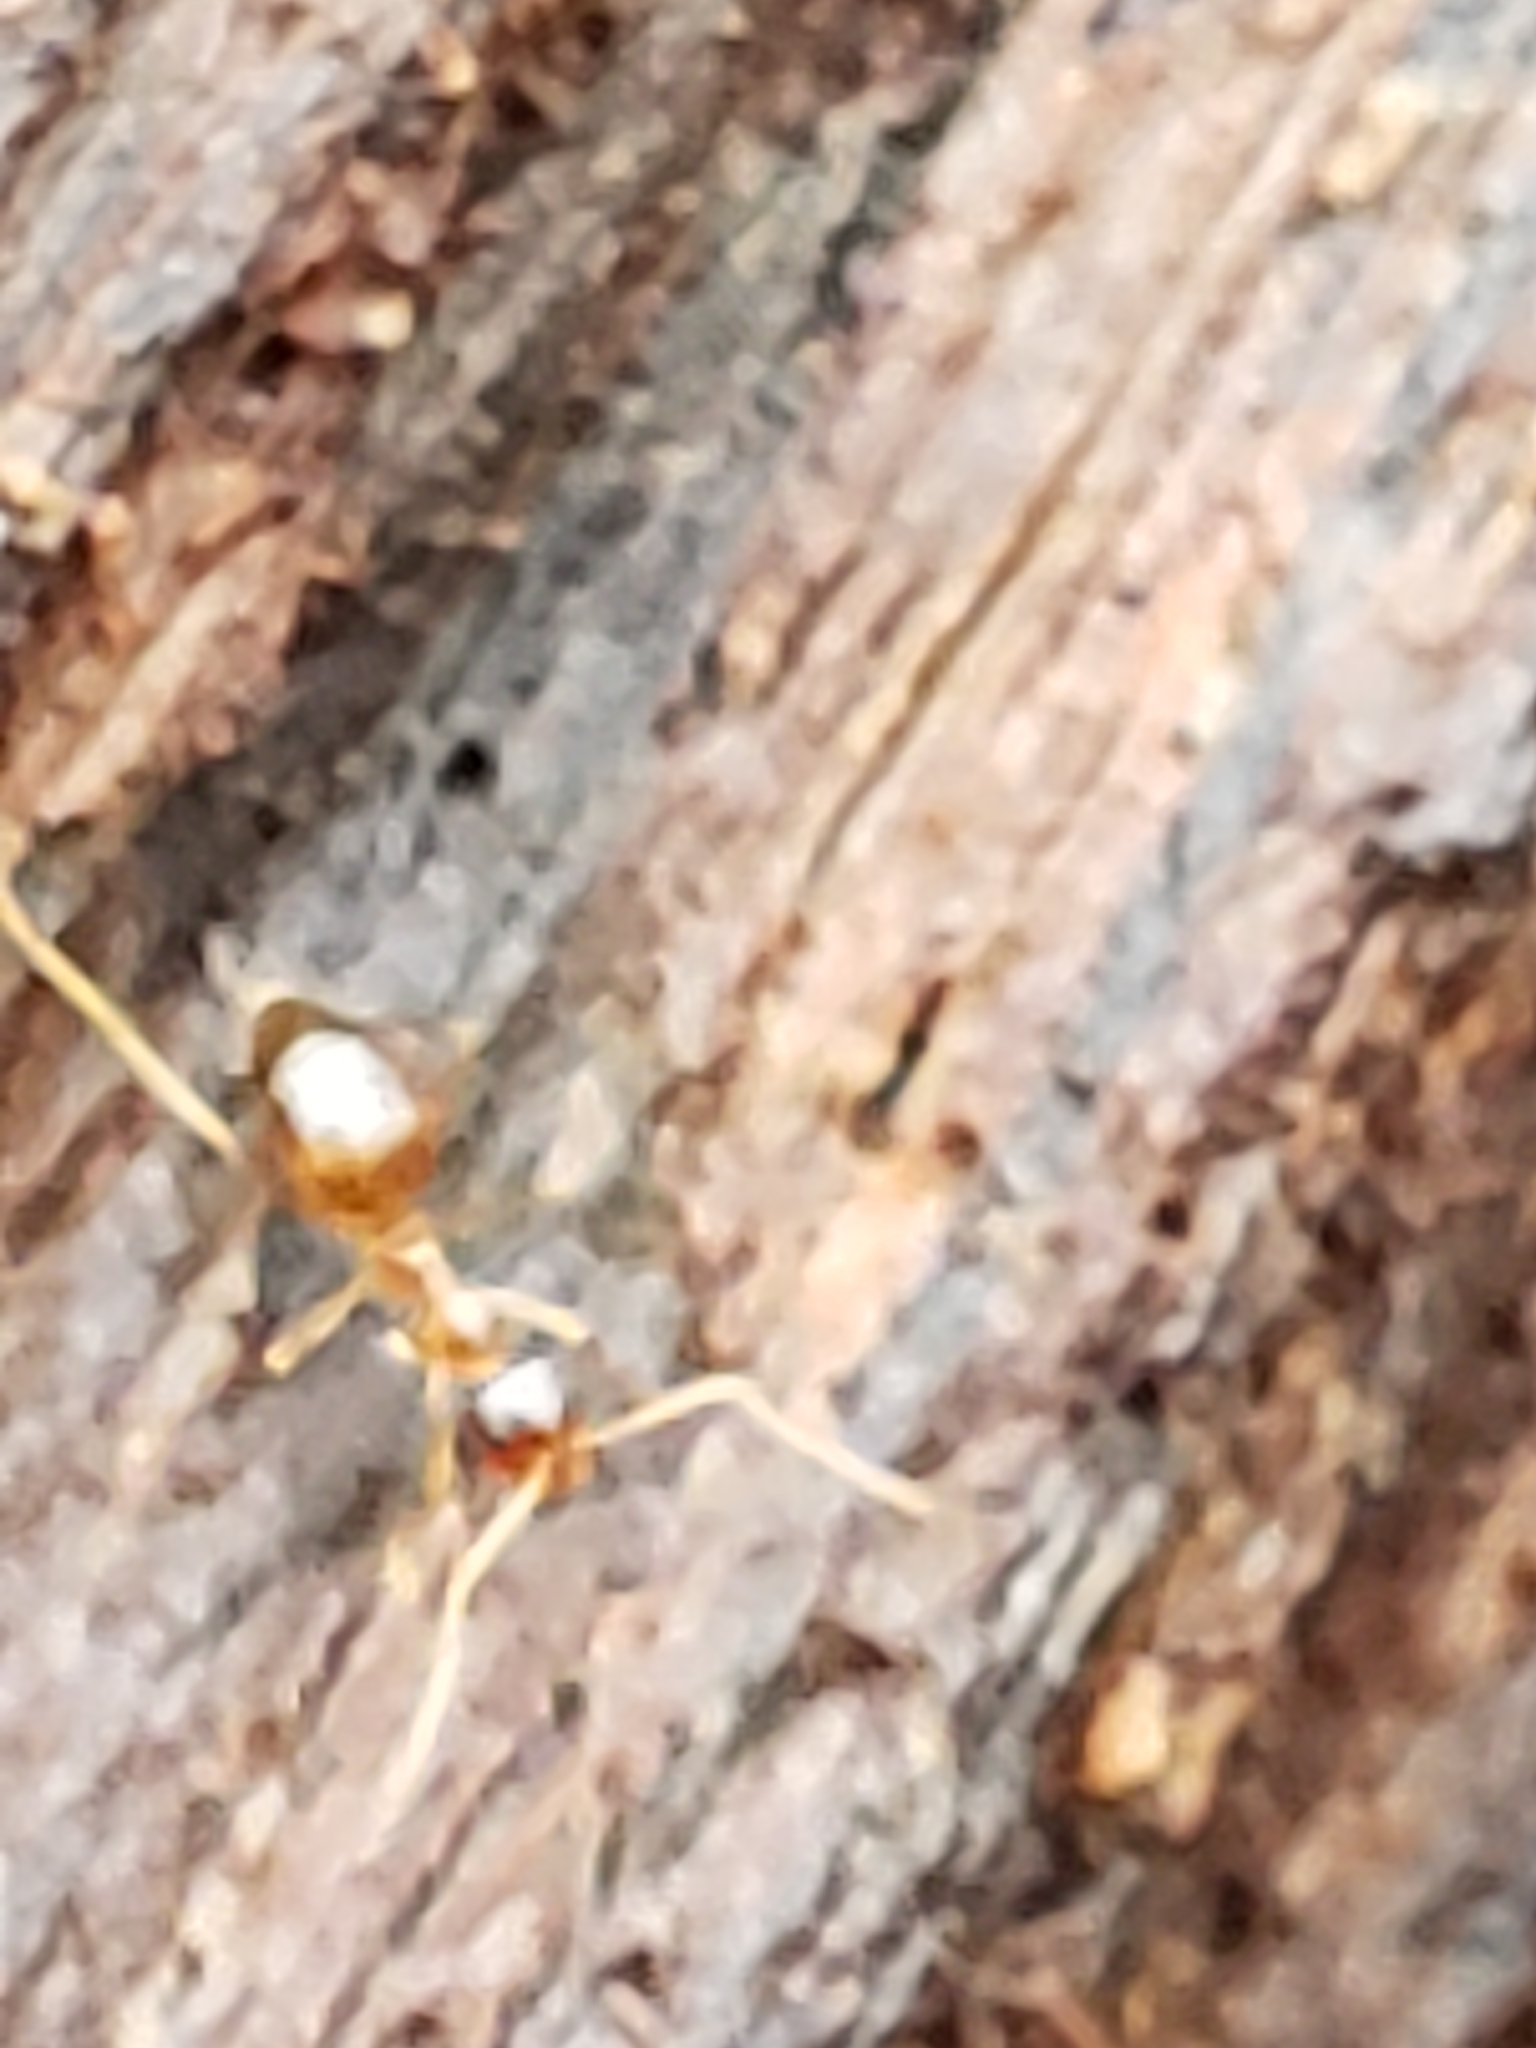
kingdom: Animalia
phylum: Arthropoda
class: Insecta
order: Hymenoptera
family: Formicidae
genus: Prenolepis
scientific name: Prenolepis imparis
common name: Small honey ant
